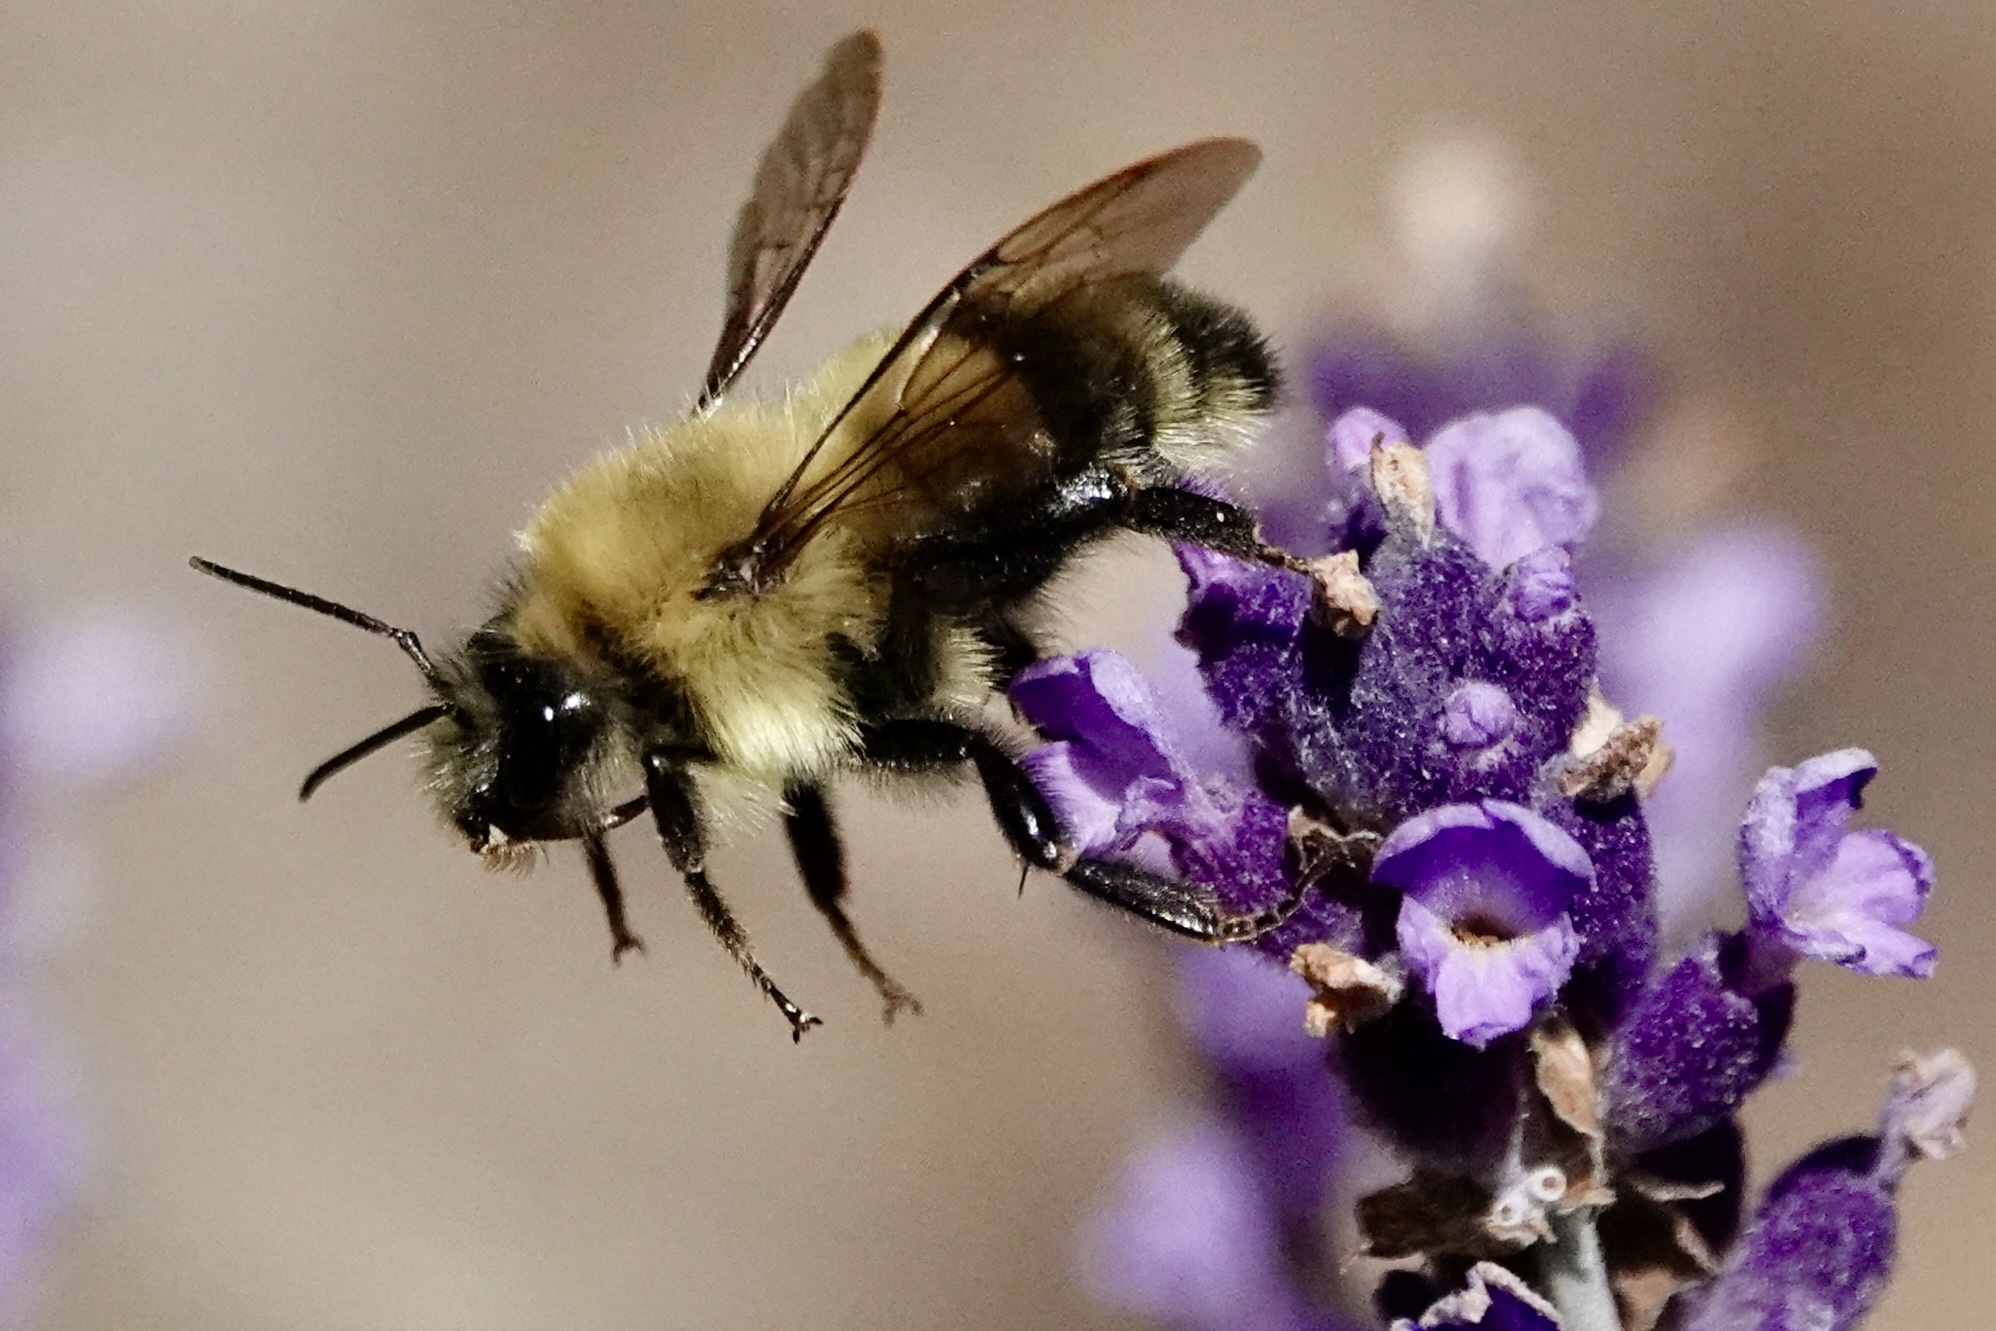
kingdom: Animalia
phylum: Arthropoda
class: Insecta
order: Hymenoptera
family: Apidae
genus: Bombus
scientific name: Bombus bimaculatus
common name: Two-spotted bumble bee
